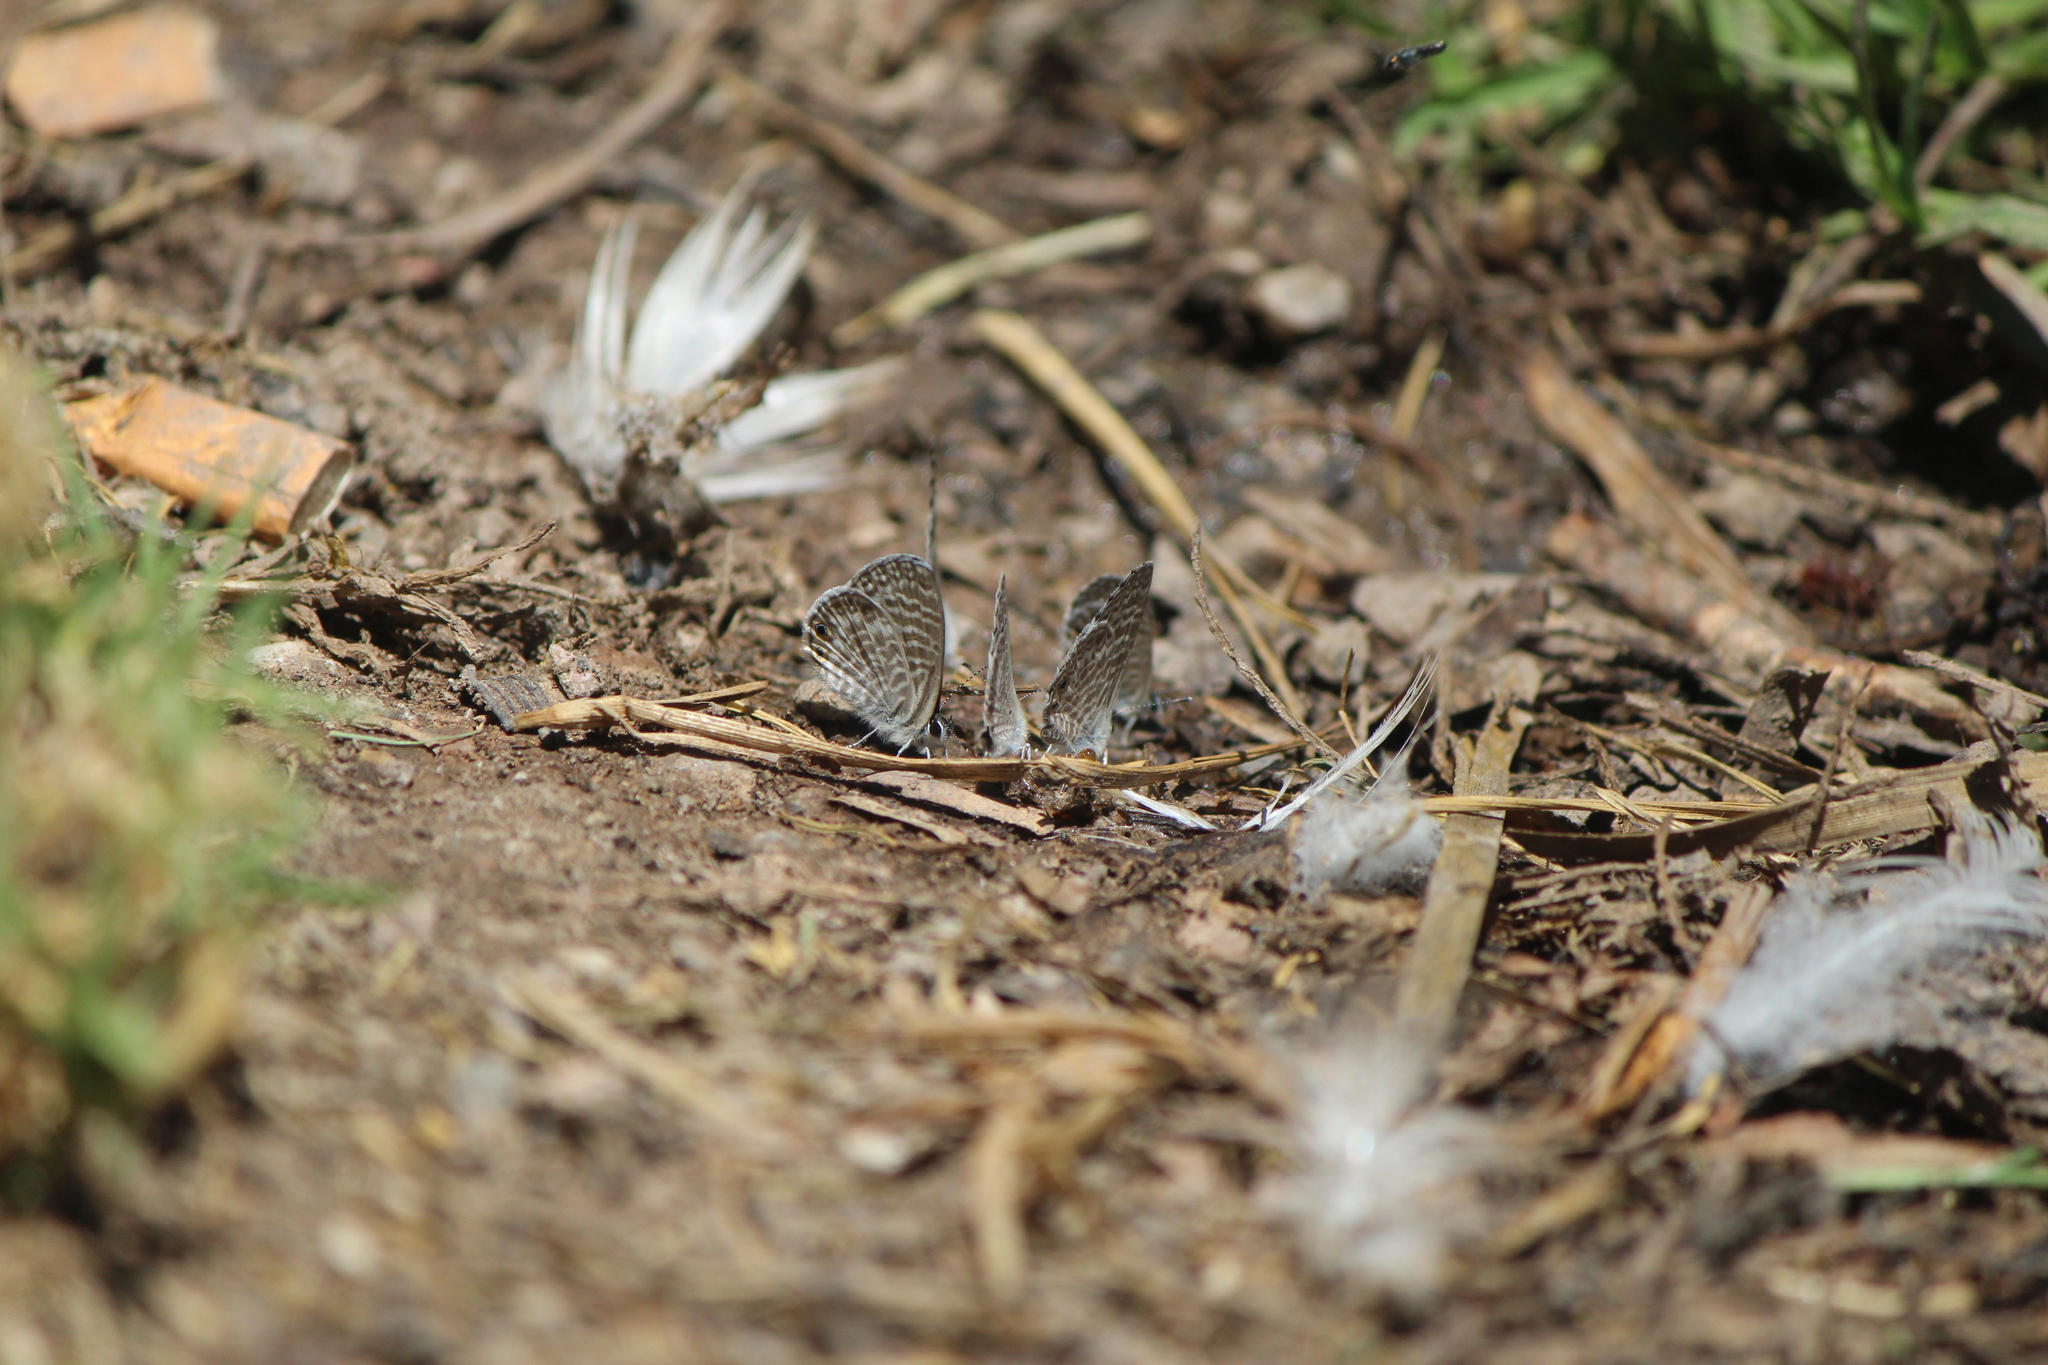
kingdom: Animalia
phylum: Arthropoda
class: Insecta
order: Lepidoptera
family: Lycaenidae
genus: Leptotes
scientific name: Leptotes marina
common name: Marine blue
